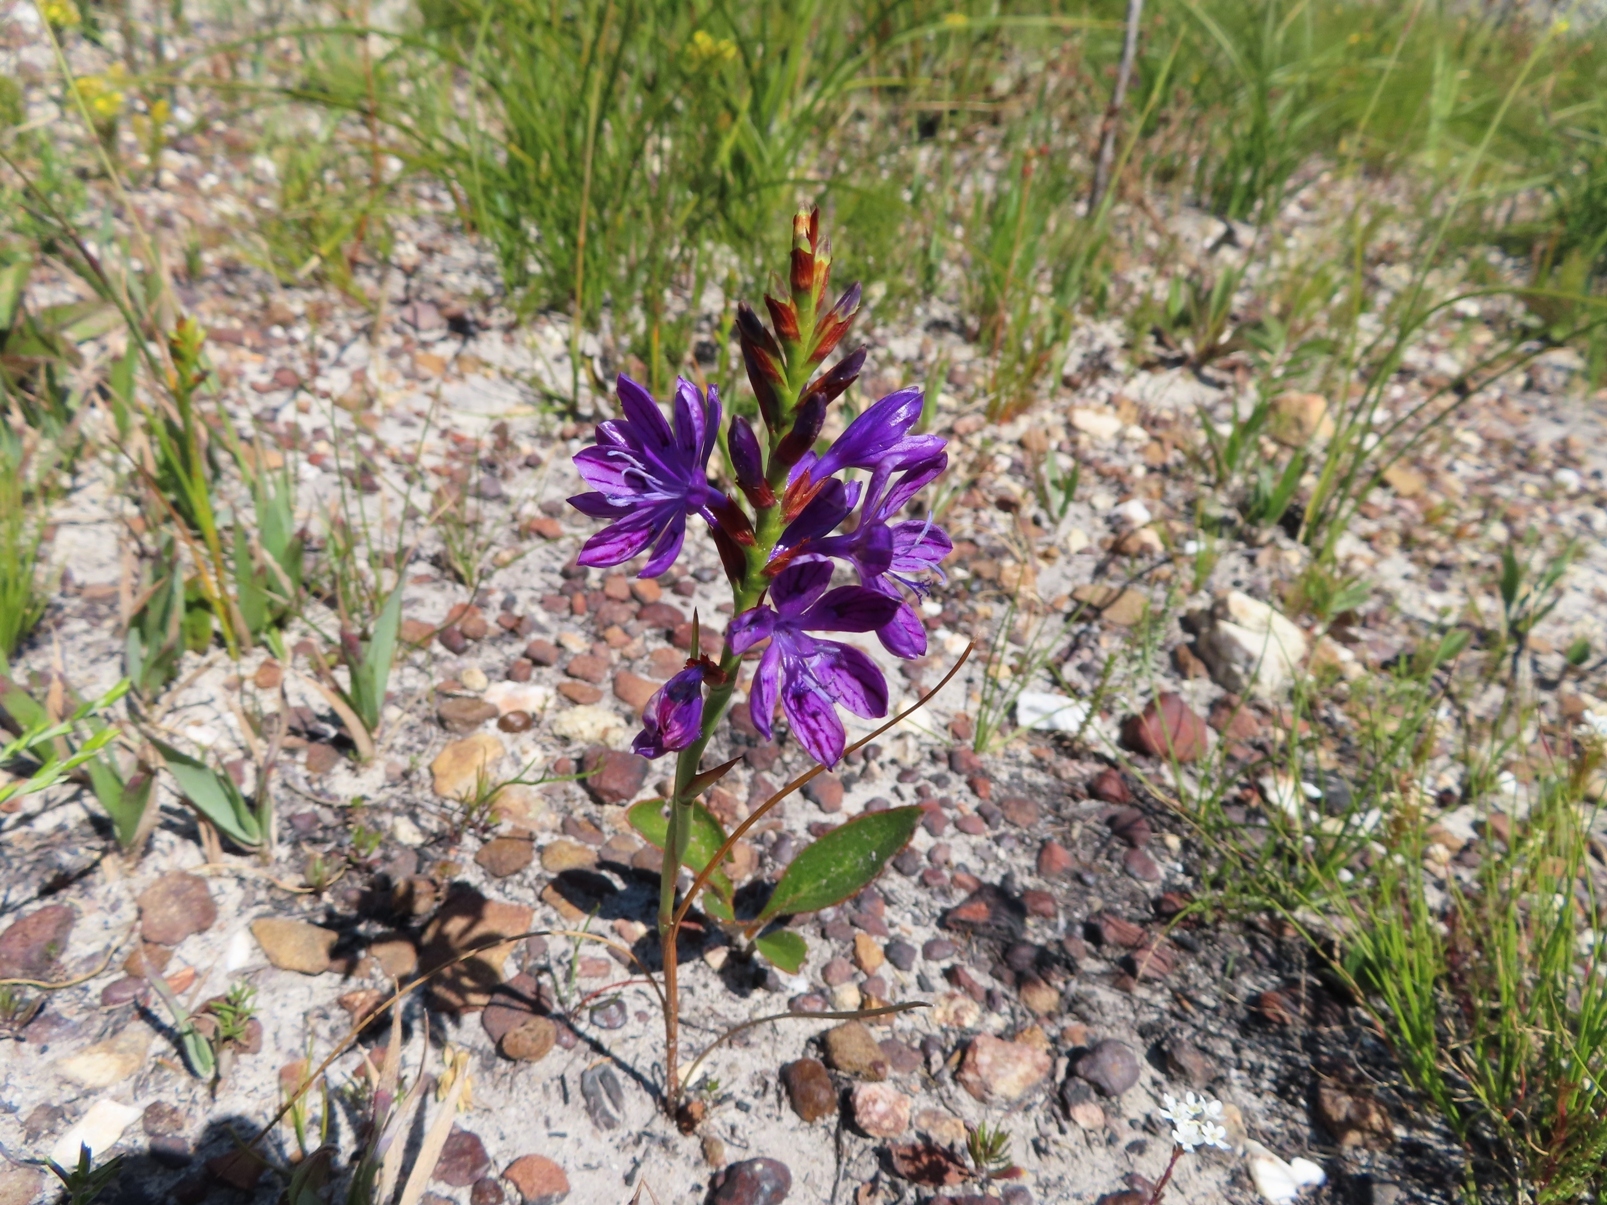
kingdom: Plantae
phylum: Tracheophyta
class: Liliopsida
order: Asparagales
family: Iridaceae
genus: Thereianthus
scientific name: Thereianthus bracteolatus
